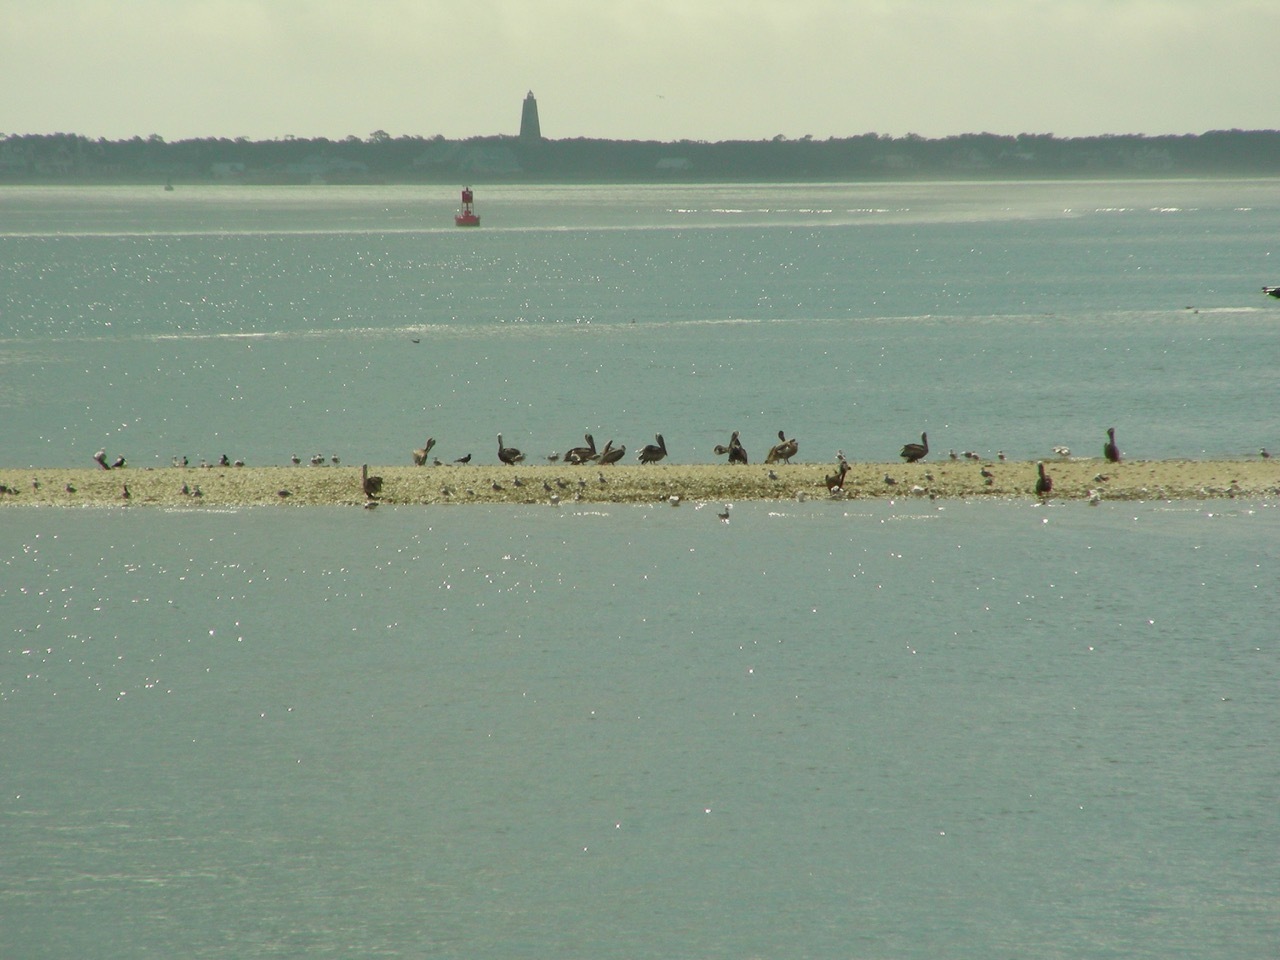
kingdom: Animalia
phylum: Chordata
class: Aves
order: Pelecaniformes
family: Pelecanidae
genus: Pelecanus
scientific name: Pelecanus occidentalis
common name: Brown pelican
